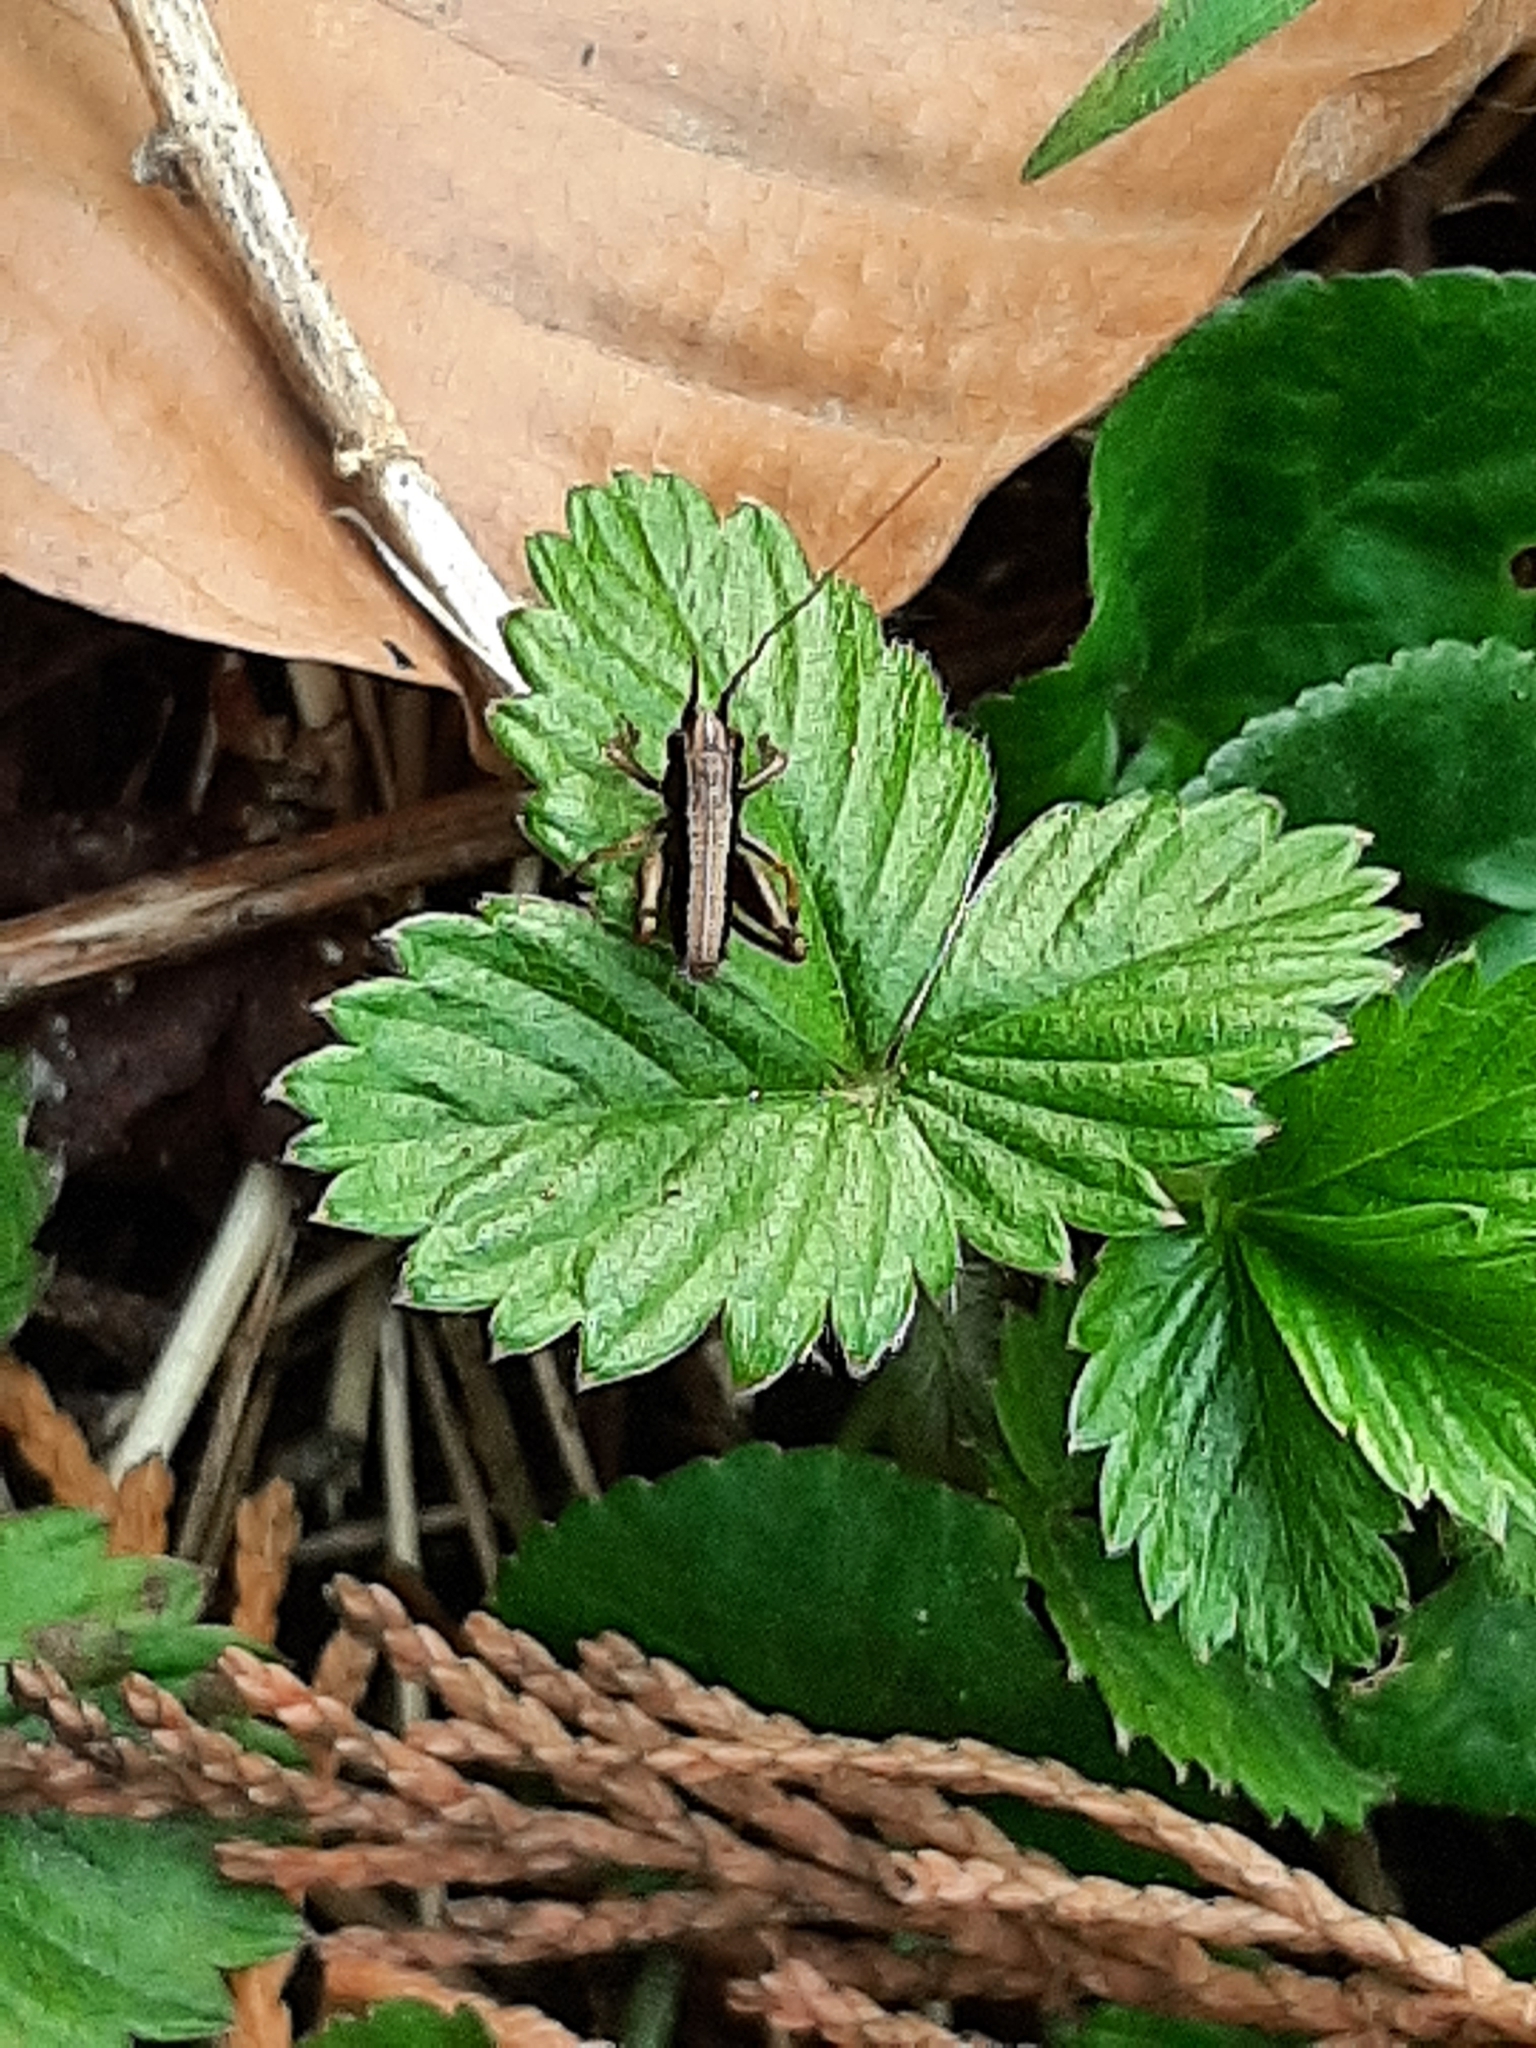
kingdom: Animalia
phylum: Arthropoda
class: Insecta
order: Orthoptera
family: Tettigoniidae
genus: Pholidoptera
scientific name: Pholidoptera griseoaptera
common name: Dark bush-cricket
